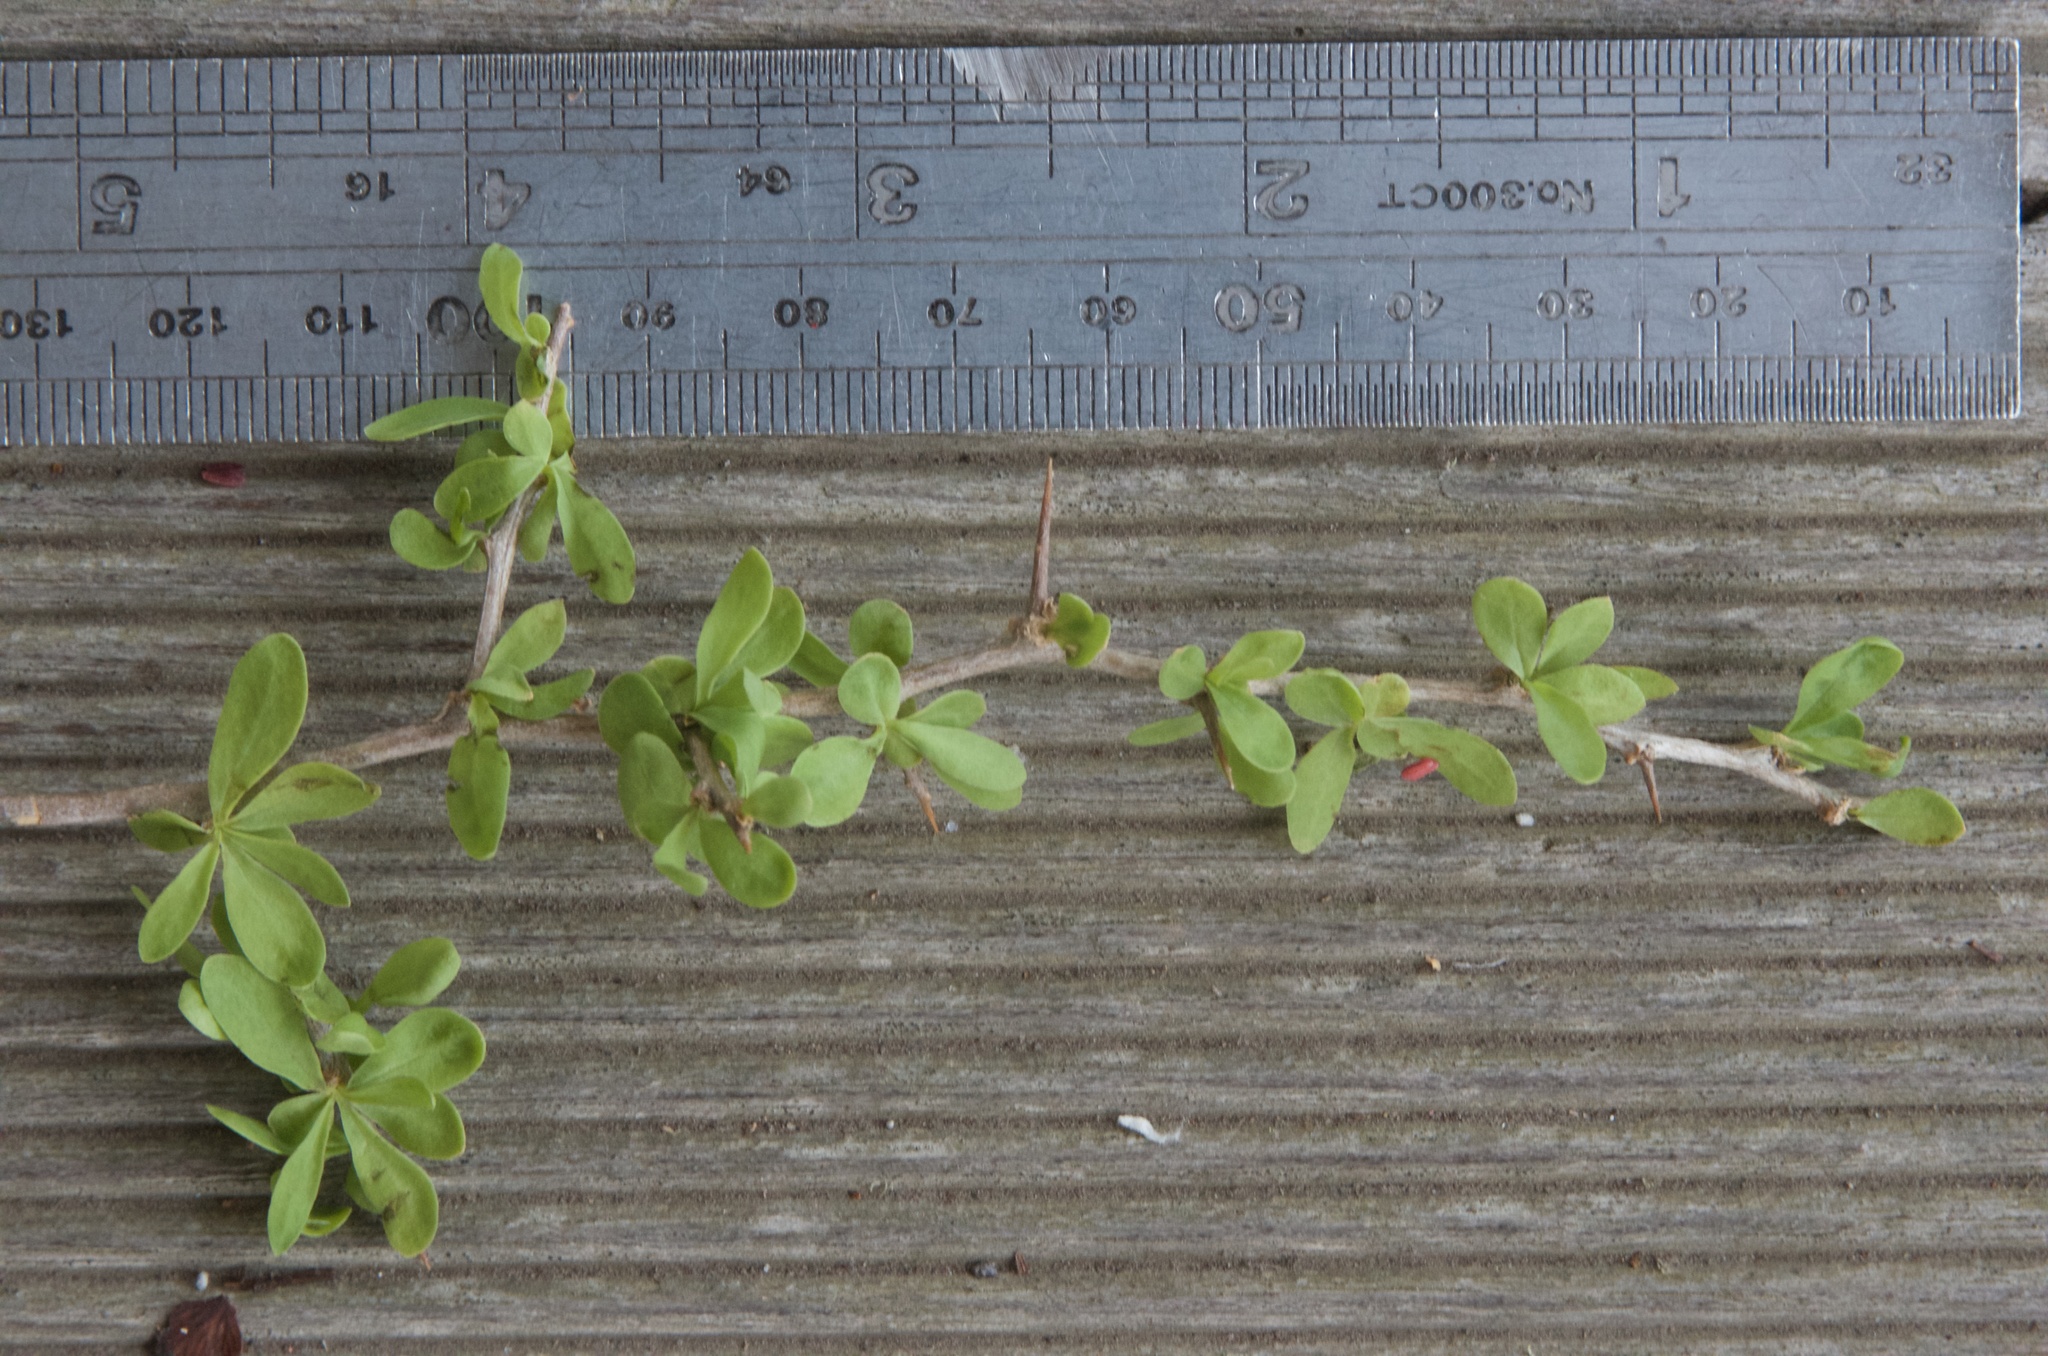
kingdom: Plantae
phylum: Tracheophyta
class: Magnoliopsida
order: Solanales
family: Solanaceae
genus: Lycium
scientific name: Lycium ferocissimum
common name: African boxthorn
